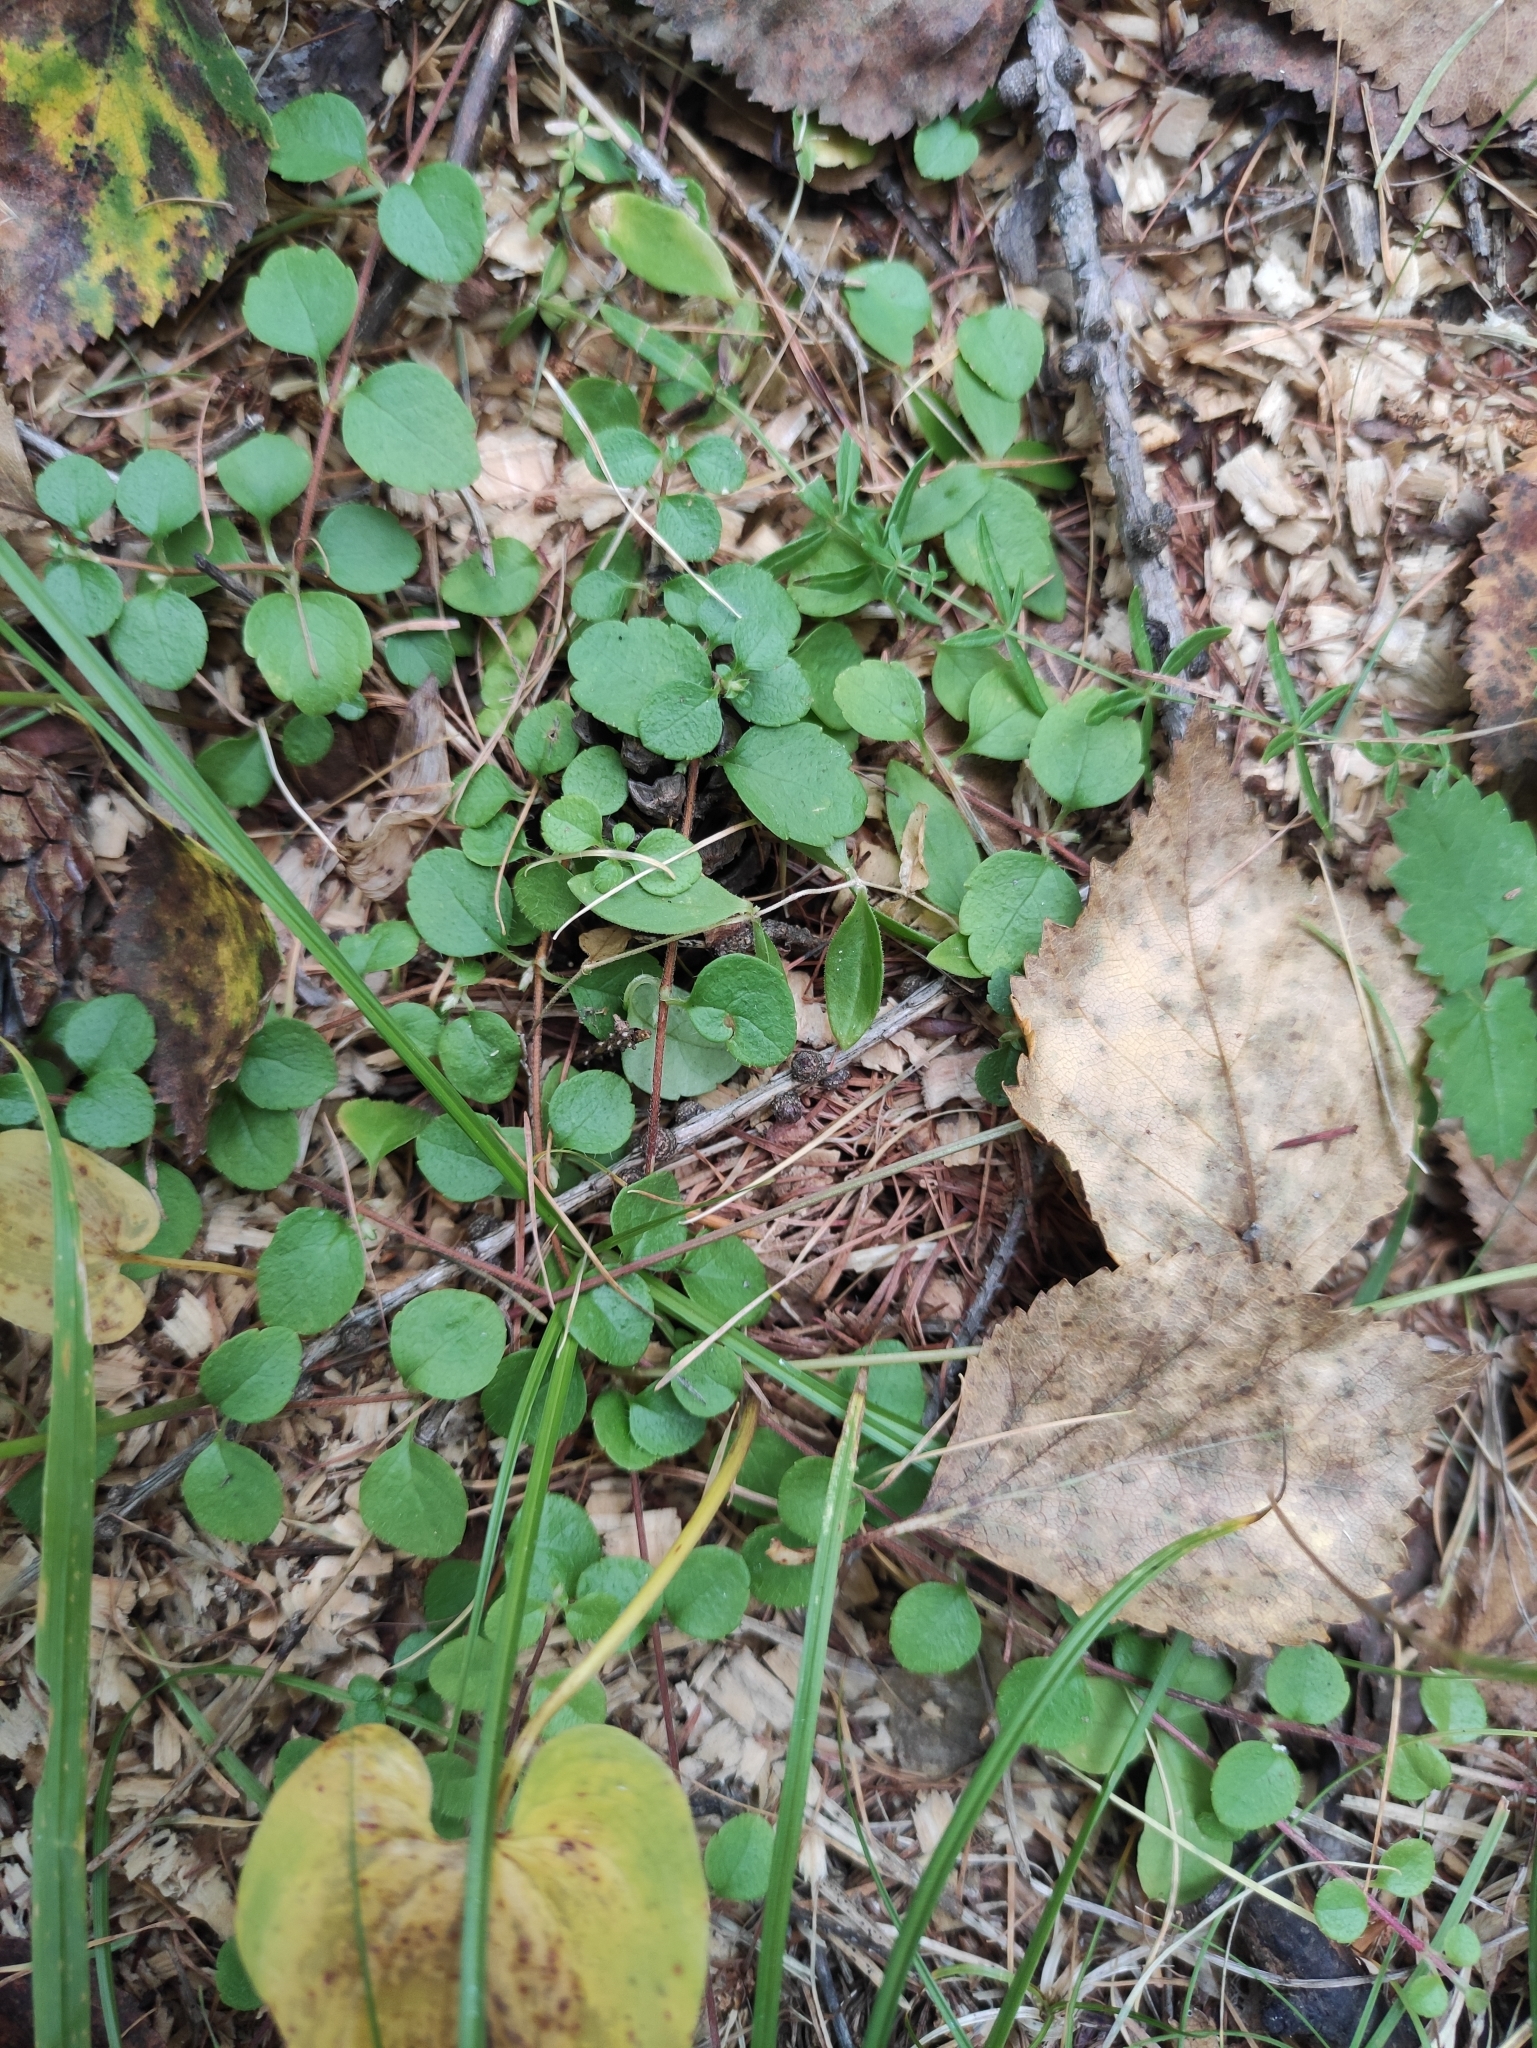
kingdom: Plantae
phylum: Tracheophyta
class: Magnoliopsida
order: Dipsacales
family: Caprifoliaceae
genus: Linnaea
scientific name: Linnaea borealis
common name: Twinflower
